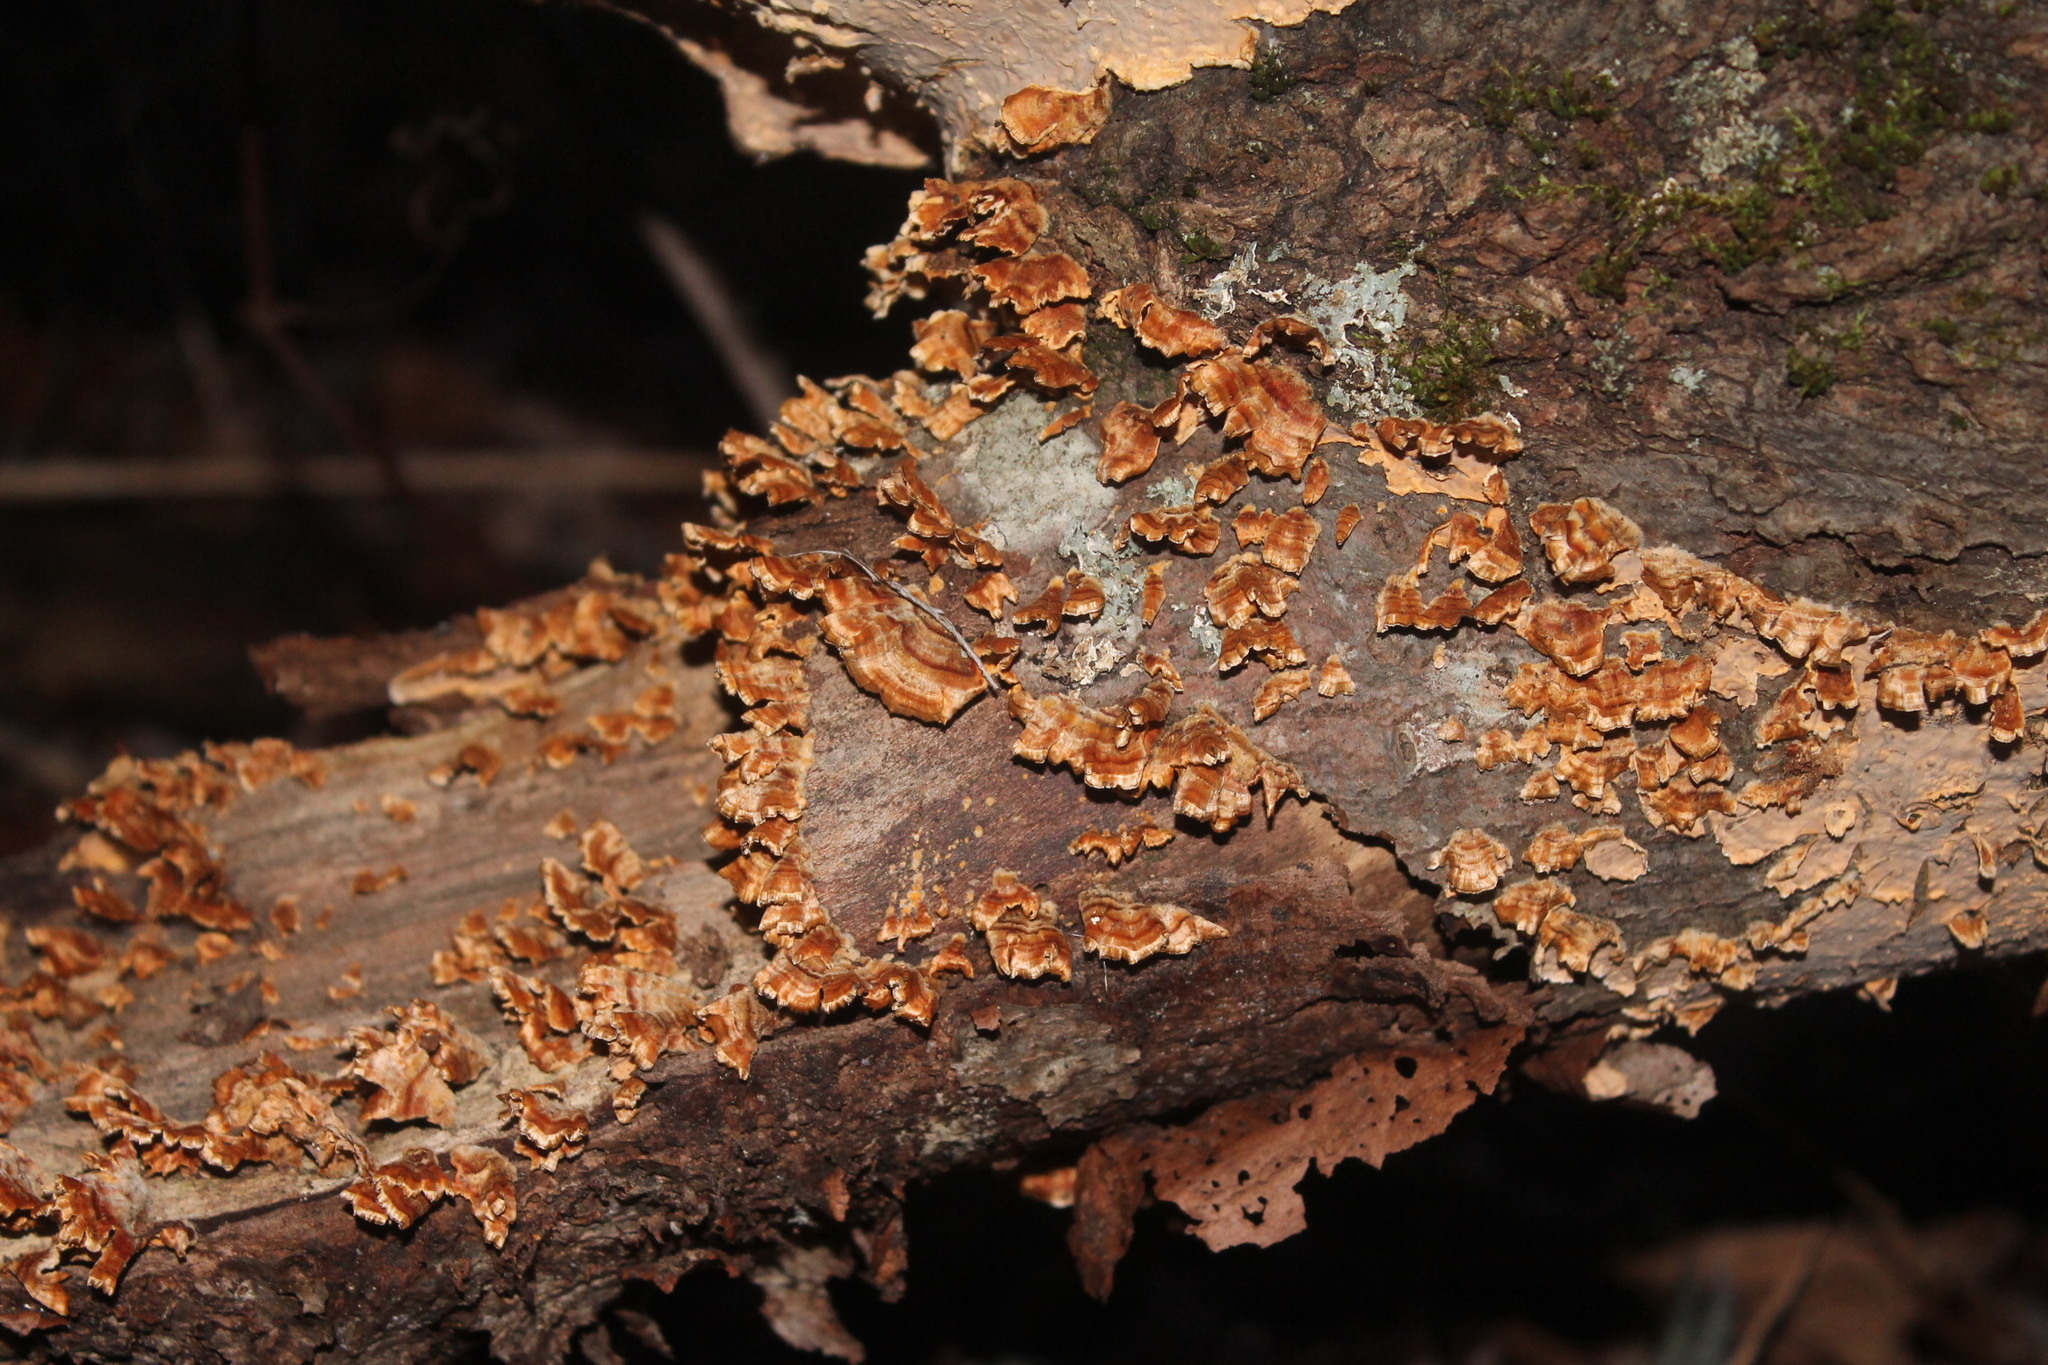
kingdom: Fungi
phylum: Basidiomycota
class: Agaricomycetes
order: Russulales
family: Stereaceae
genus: Stereum
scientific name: Stereum complicatum
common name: Crowded parchment
